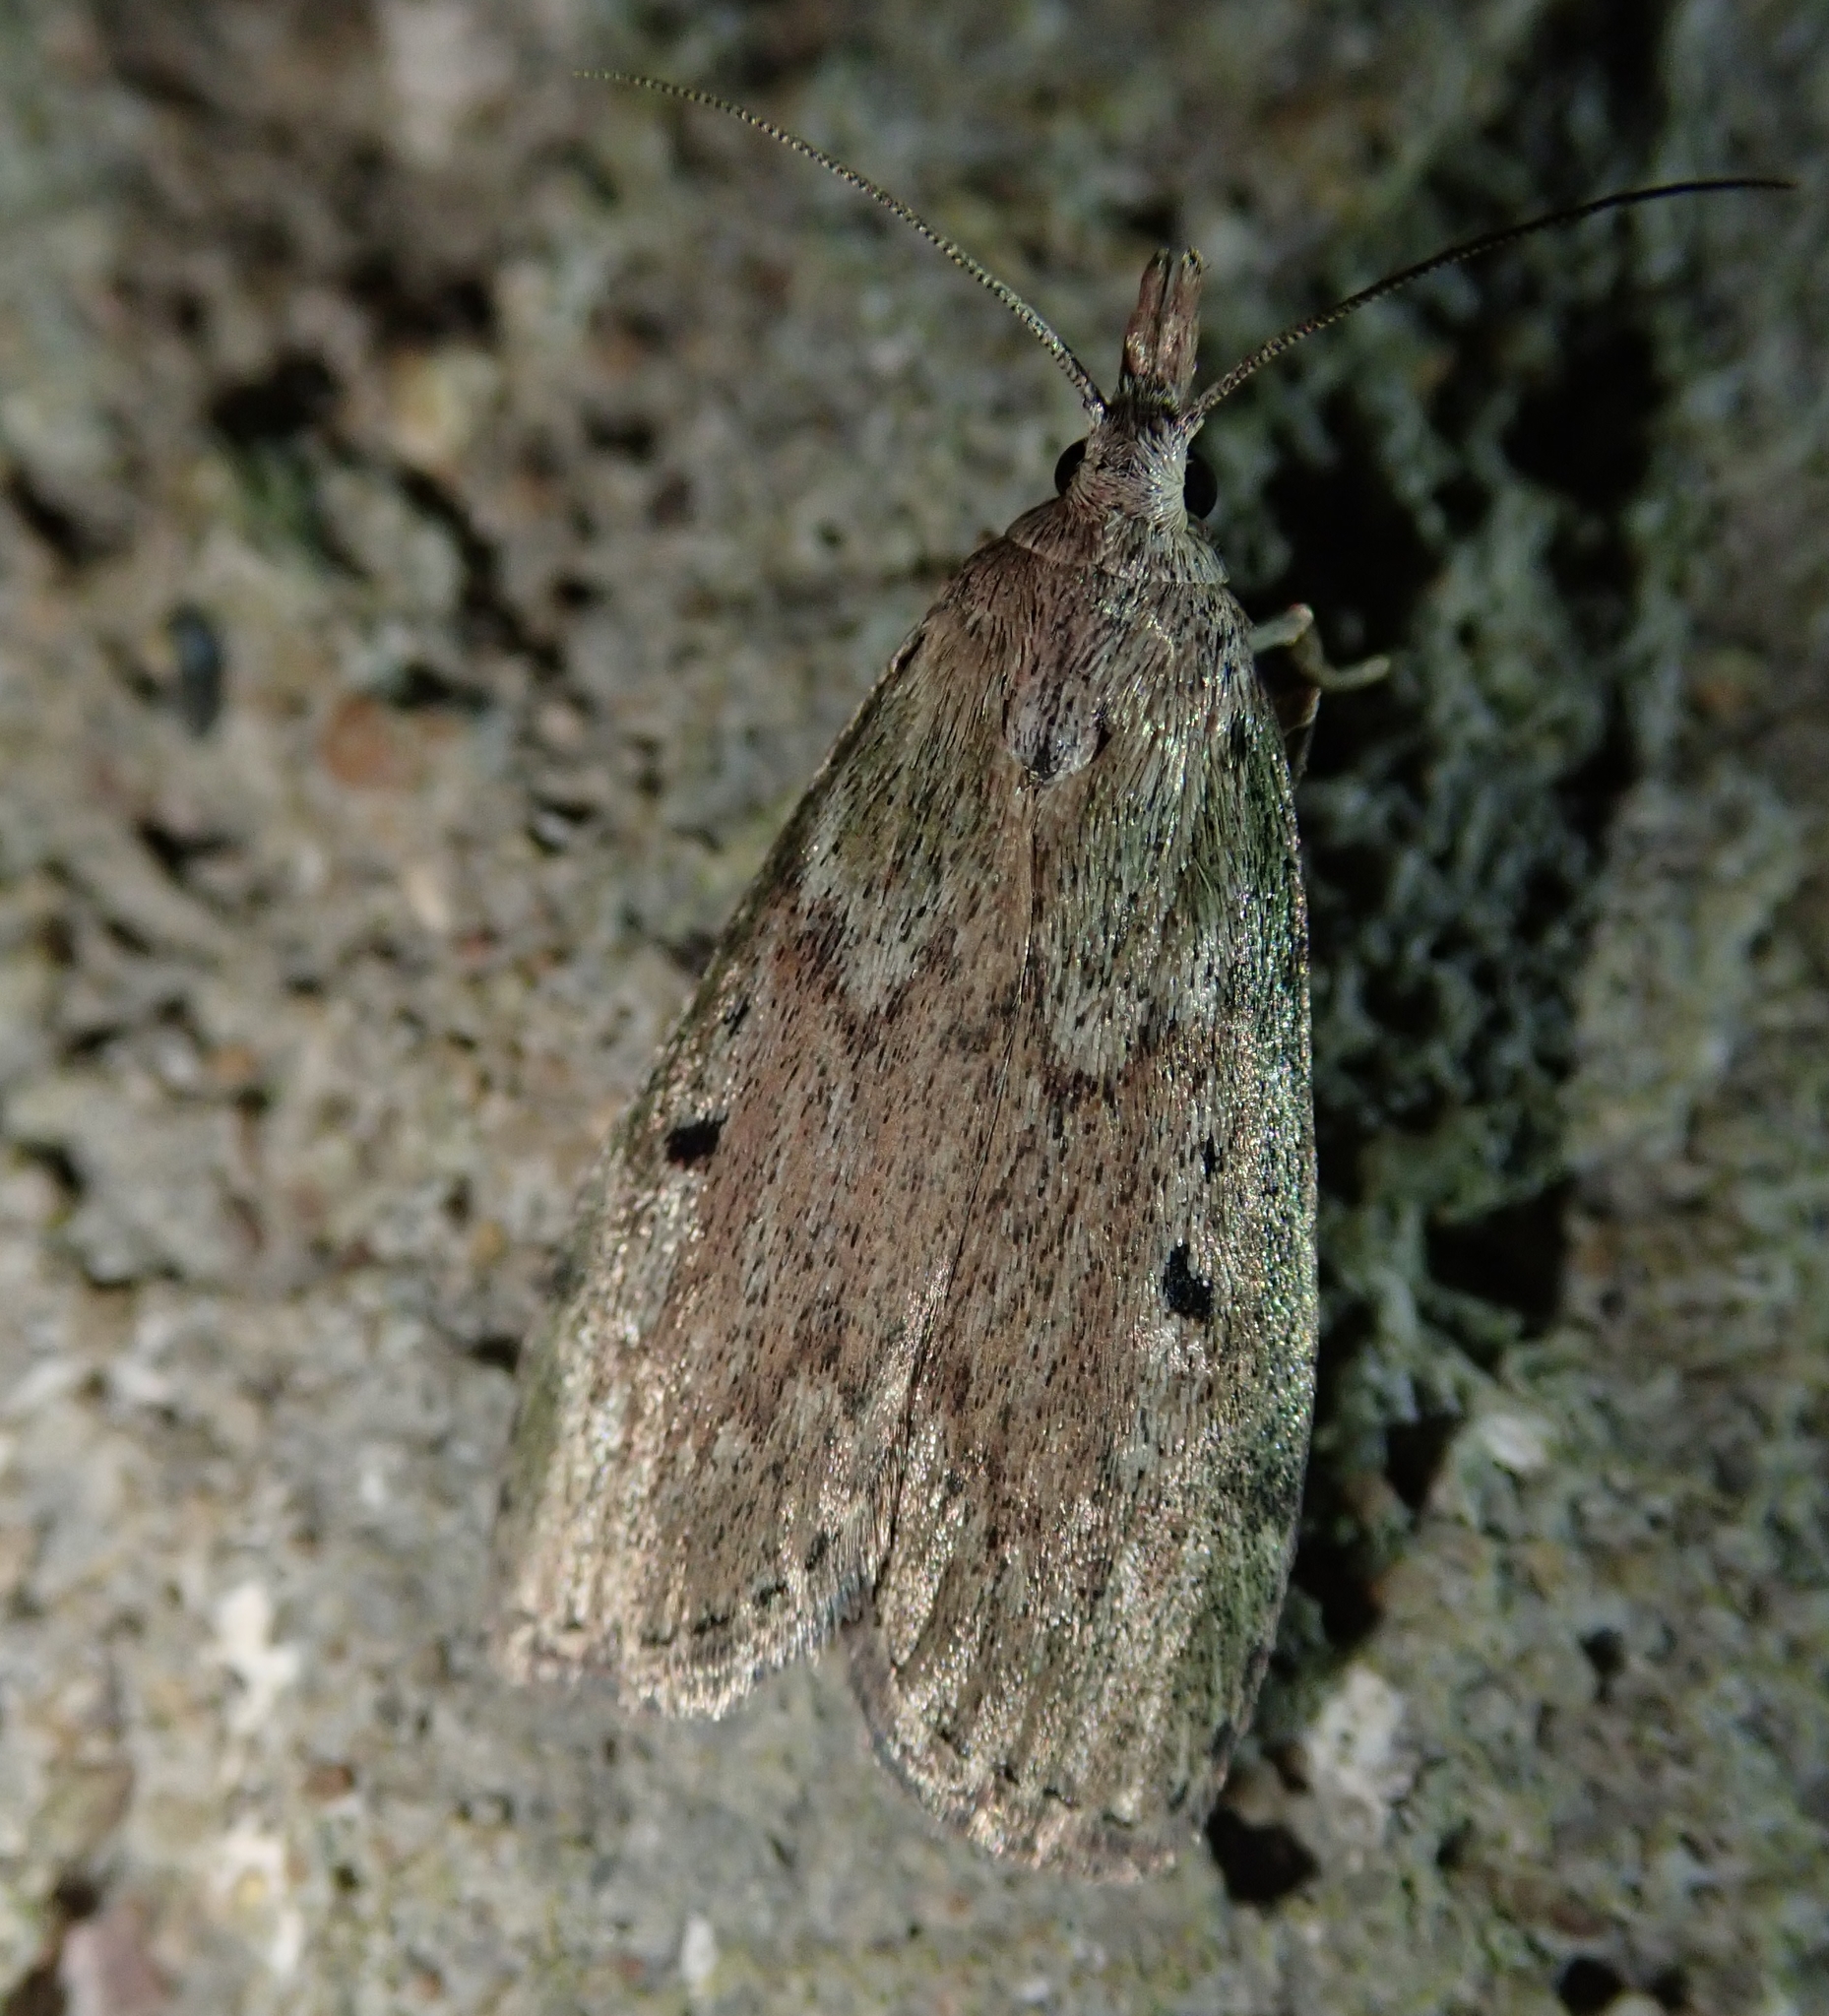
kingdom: Animalia
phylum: Arthropoda
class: Insecta
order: Lepidoptera
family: Pyralidae
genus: Aphomia
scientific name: Aphomia sociella
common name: Bee moth
